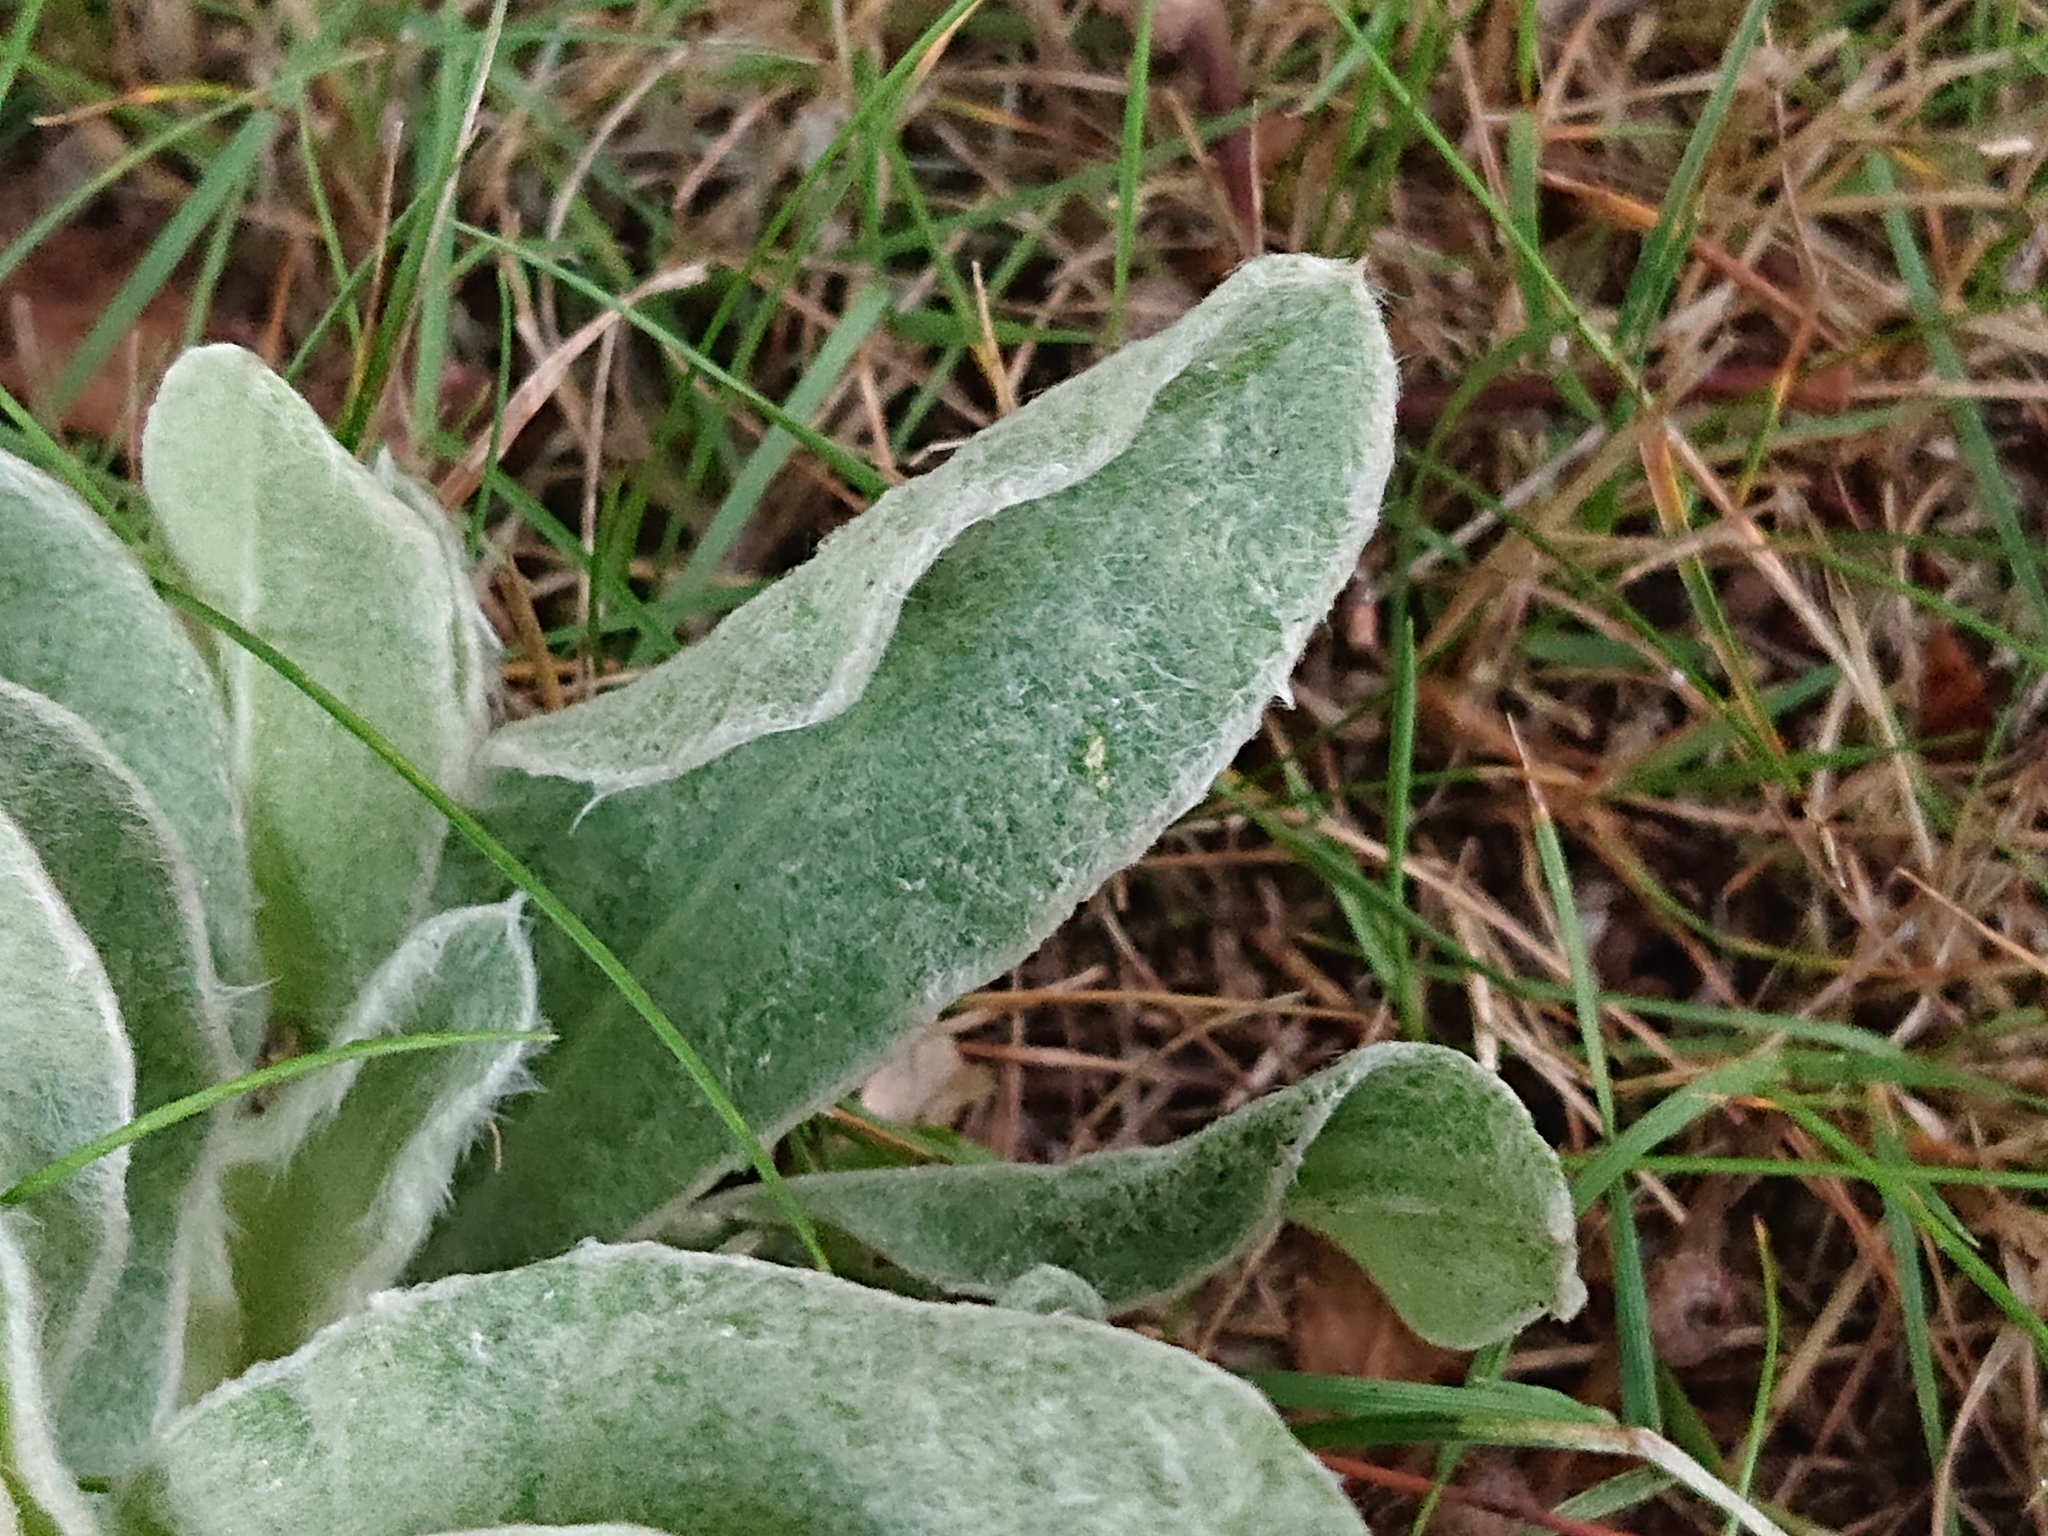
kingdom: Plantae
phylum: Tracheophyta
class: Magnoliopsida
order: Caryophyllales
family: Caryophyllaceae
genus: Silene
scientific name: Silene coronaria
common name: Rose campion
